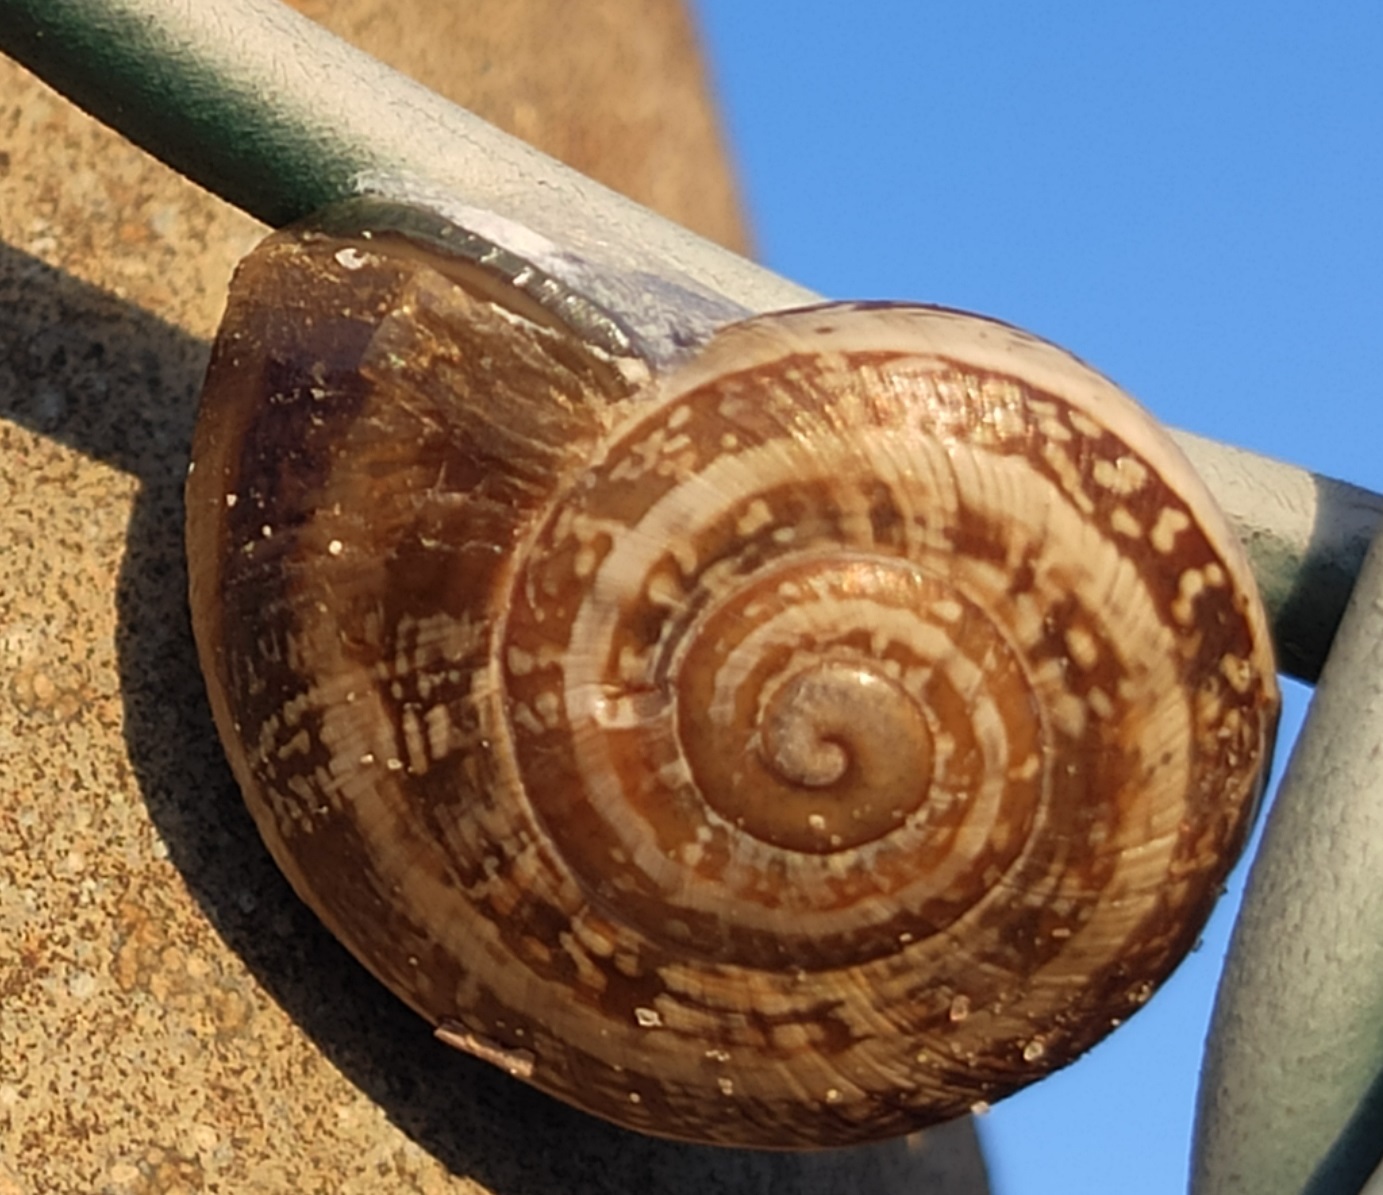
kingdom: Animalia
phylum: Mollusca
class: Gastropoda
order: Stylommatophora
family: Helicidae
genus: Otala
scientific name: Otala lactea
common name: Milk snail
